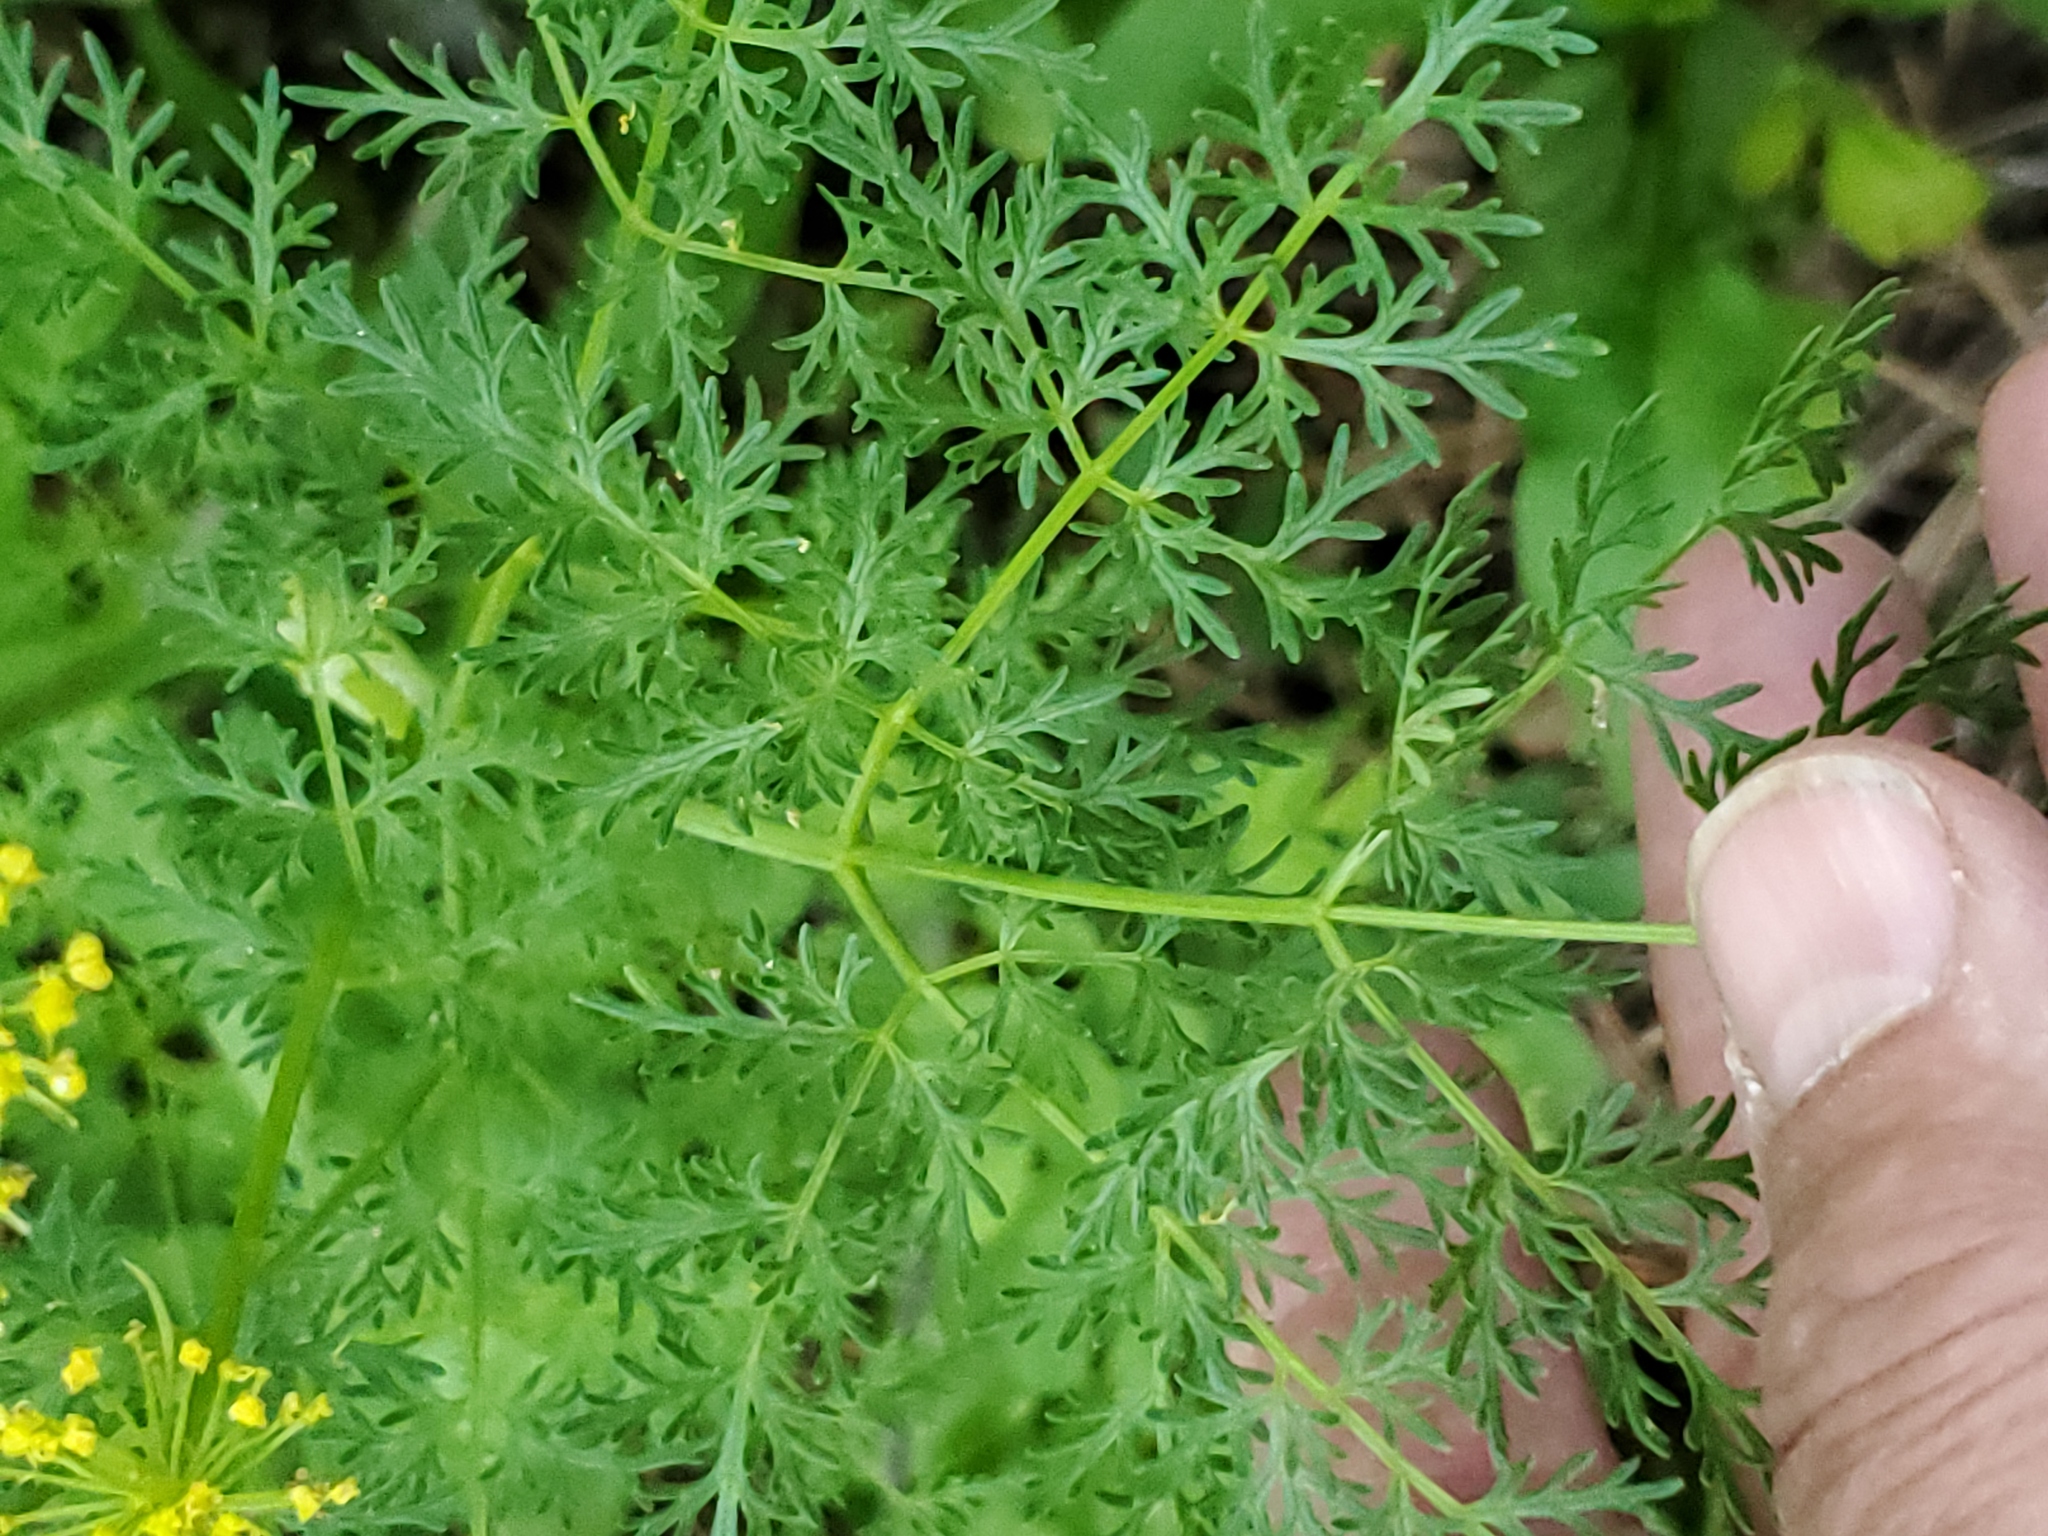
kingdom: Plantae
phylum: Tracheophyta
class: Magnoliopsida
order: Apiales
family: Apiaceae
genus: Lomatium
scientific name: Lomatium multifidum
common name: Carrot-leaved biscuitroot
